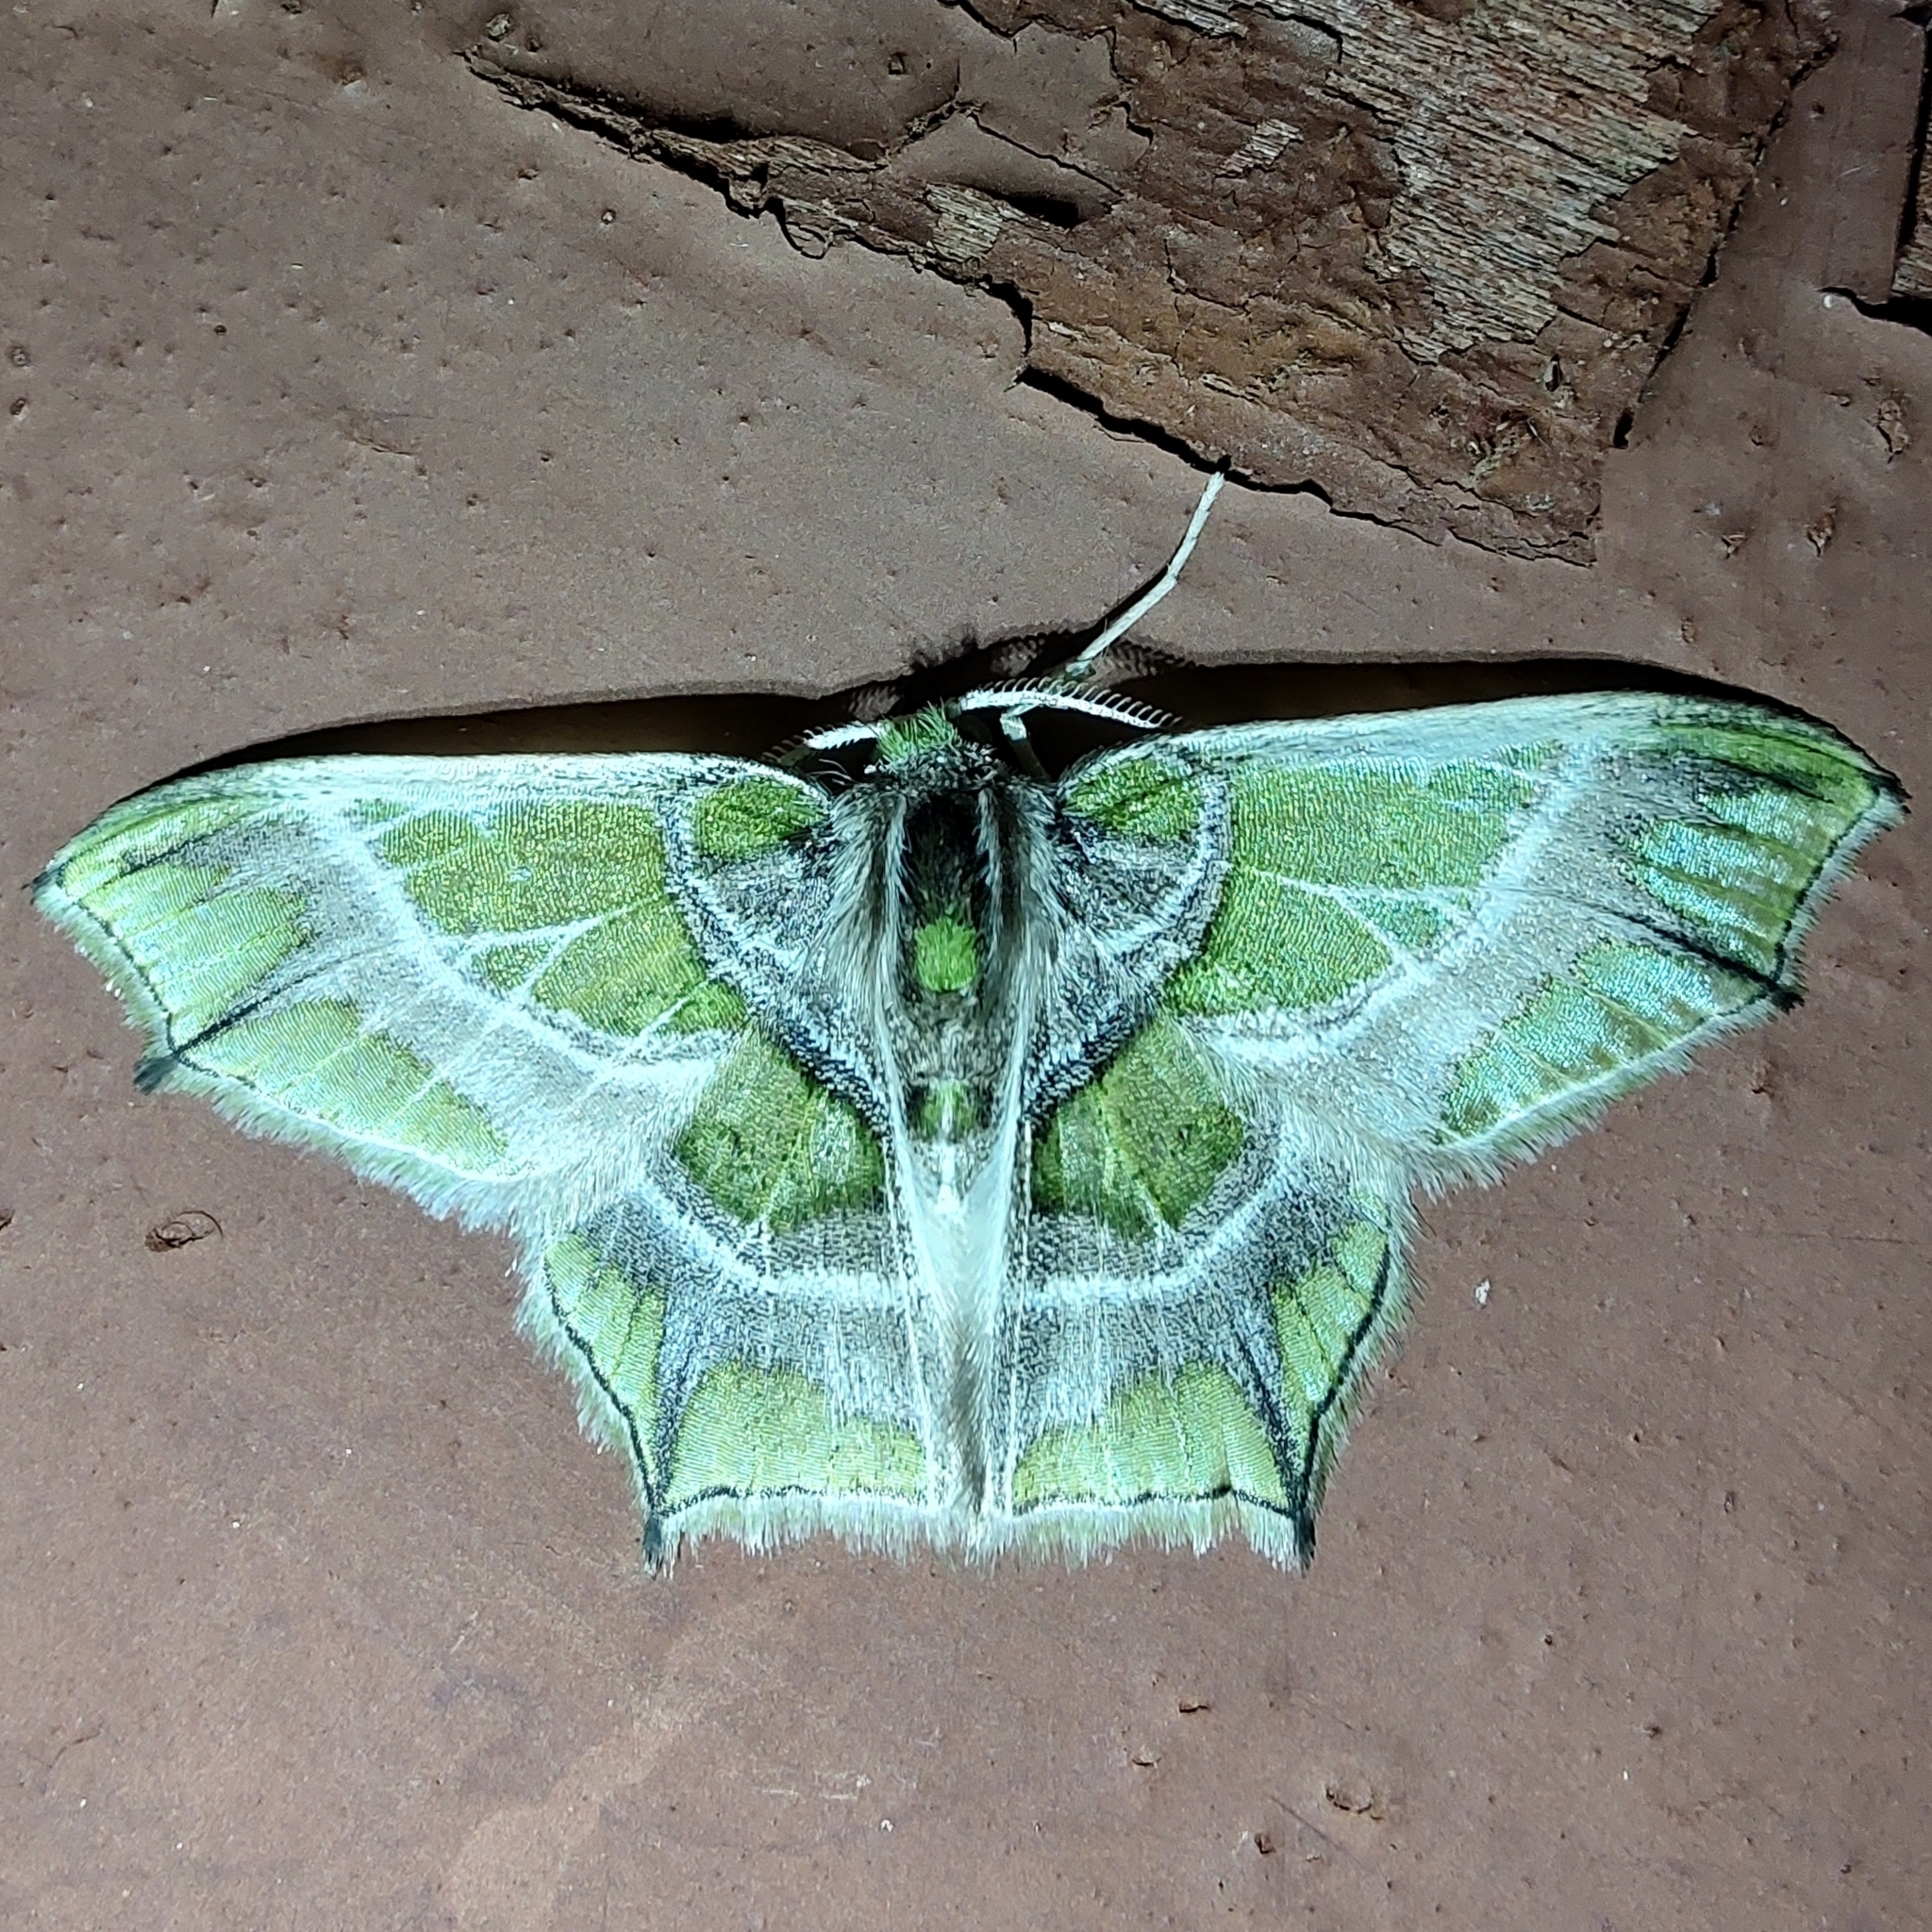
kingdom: Animalia
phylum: Arthropoda
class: Insecta
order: Lepidoptera
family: Geometridae
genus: Chloractis
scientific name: Chloractis pulcherrima
